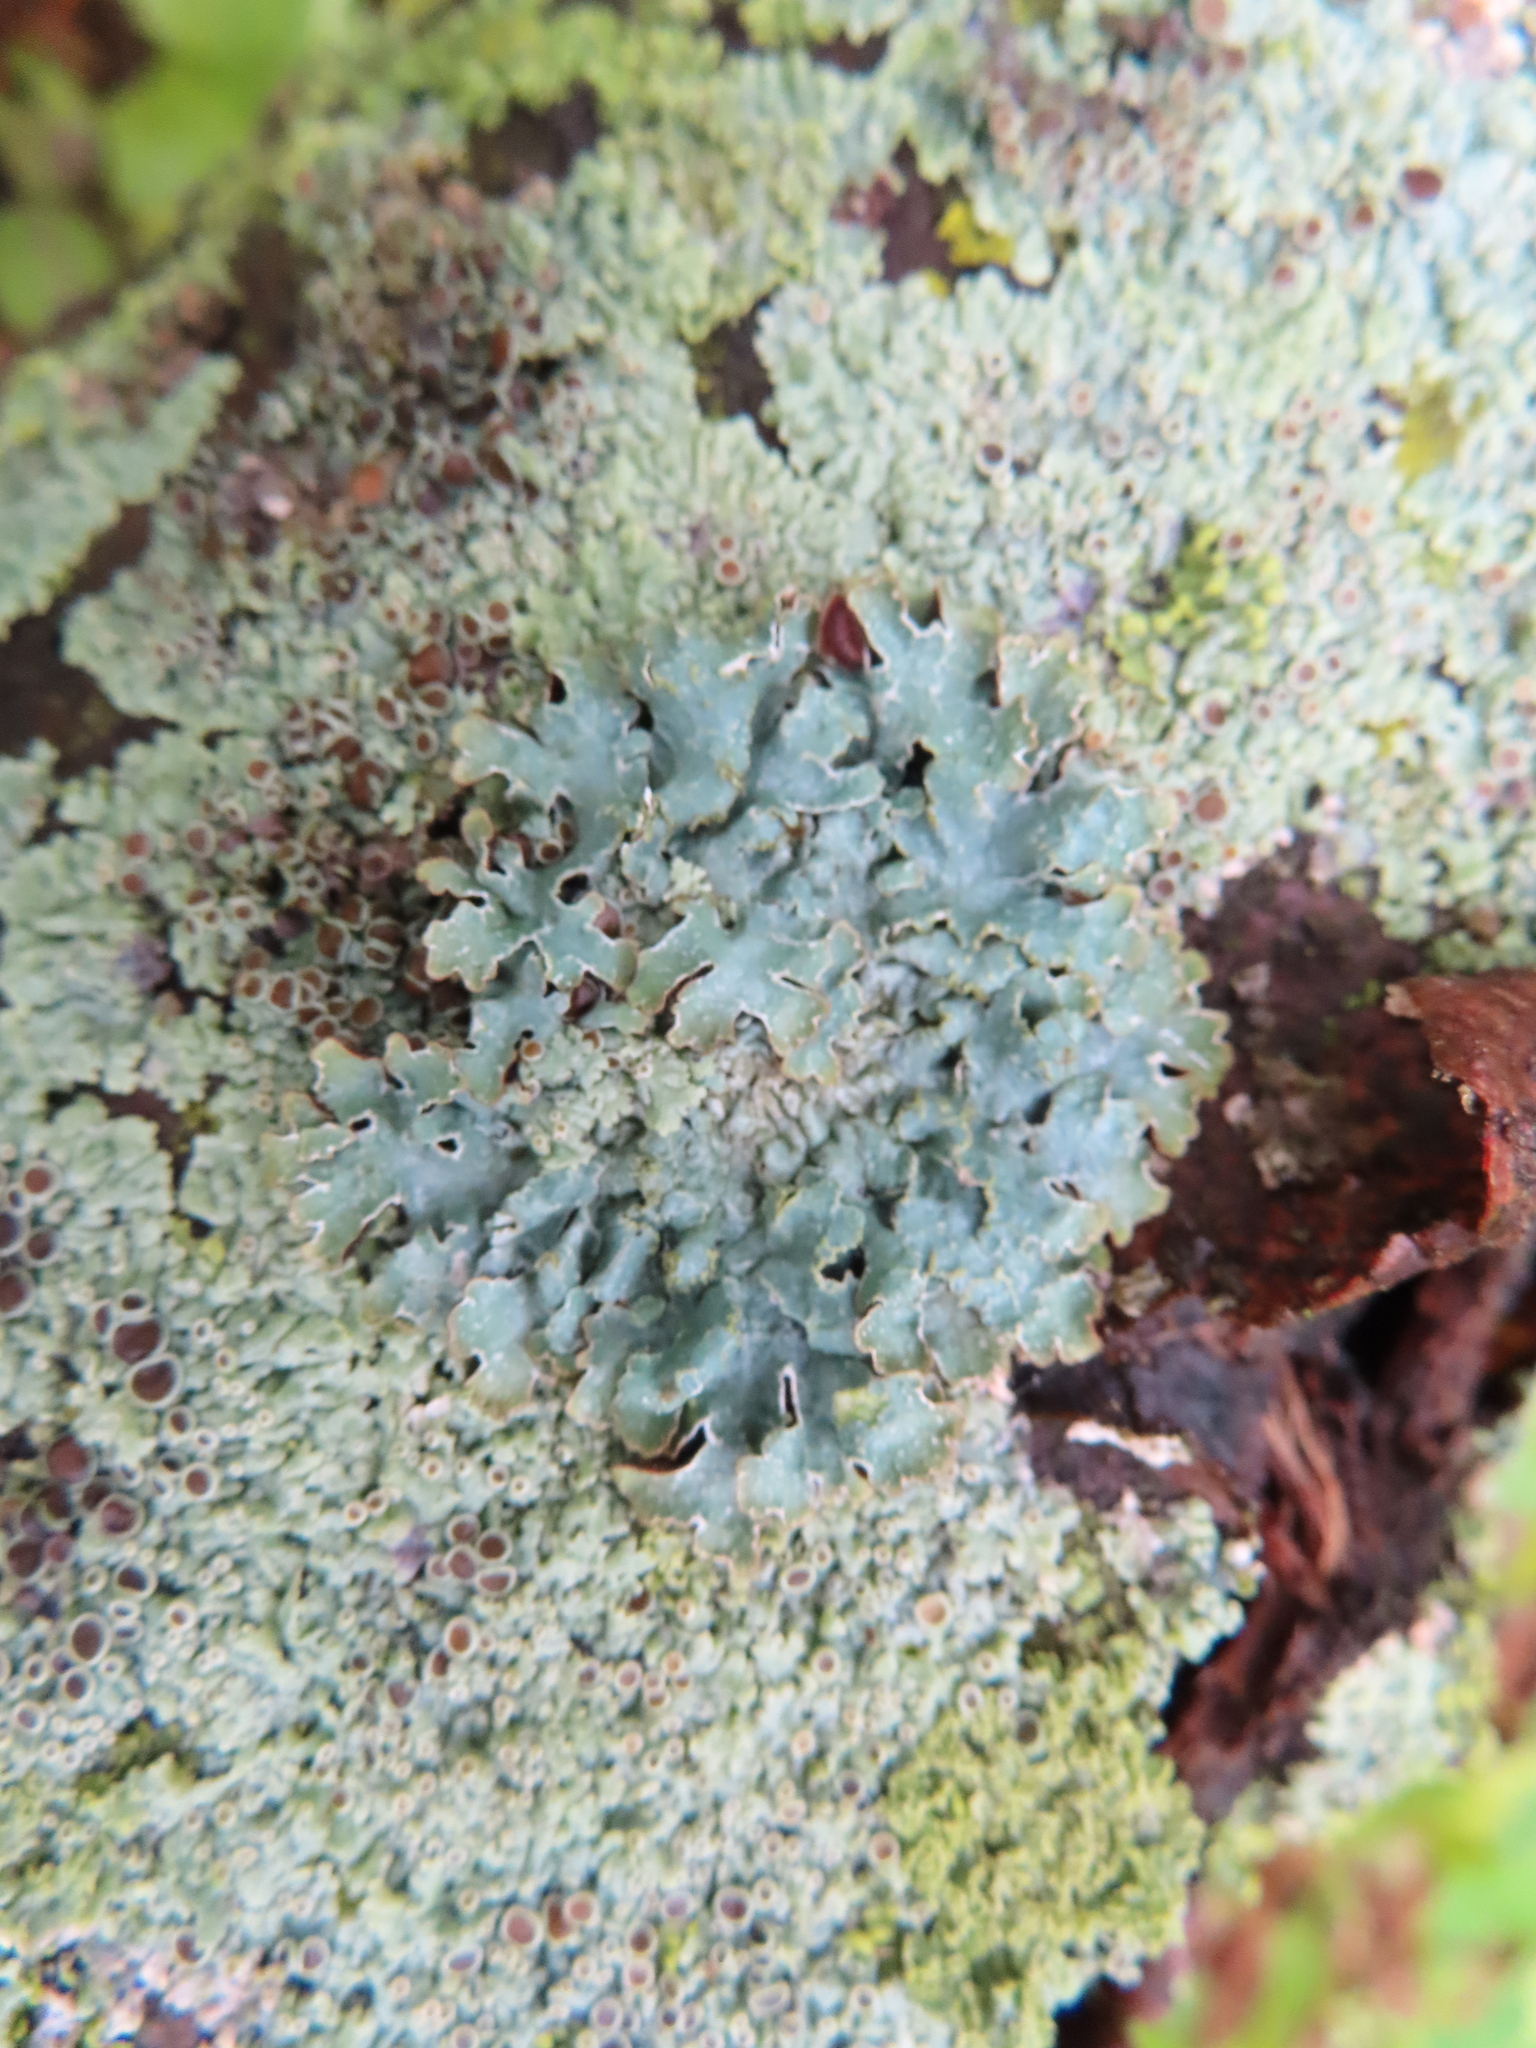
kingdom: Fungi
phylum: Ascomycota
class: Lecanoromycetes
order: Lecanorales
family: Parmeliaceae
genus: Parmelia
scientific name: Parmelia sulcata
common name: Netted shield lichen
